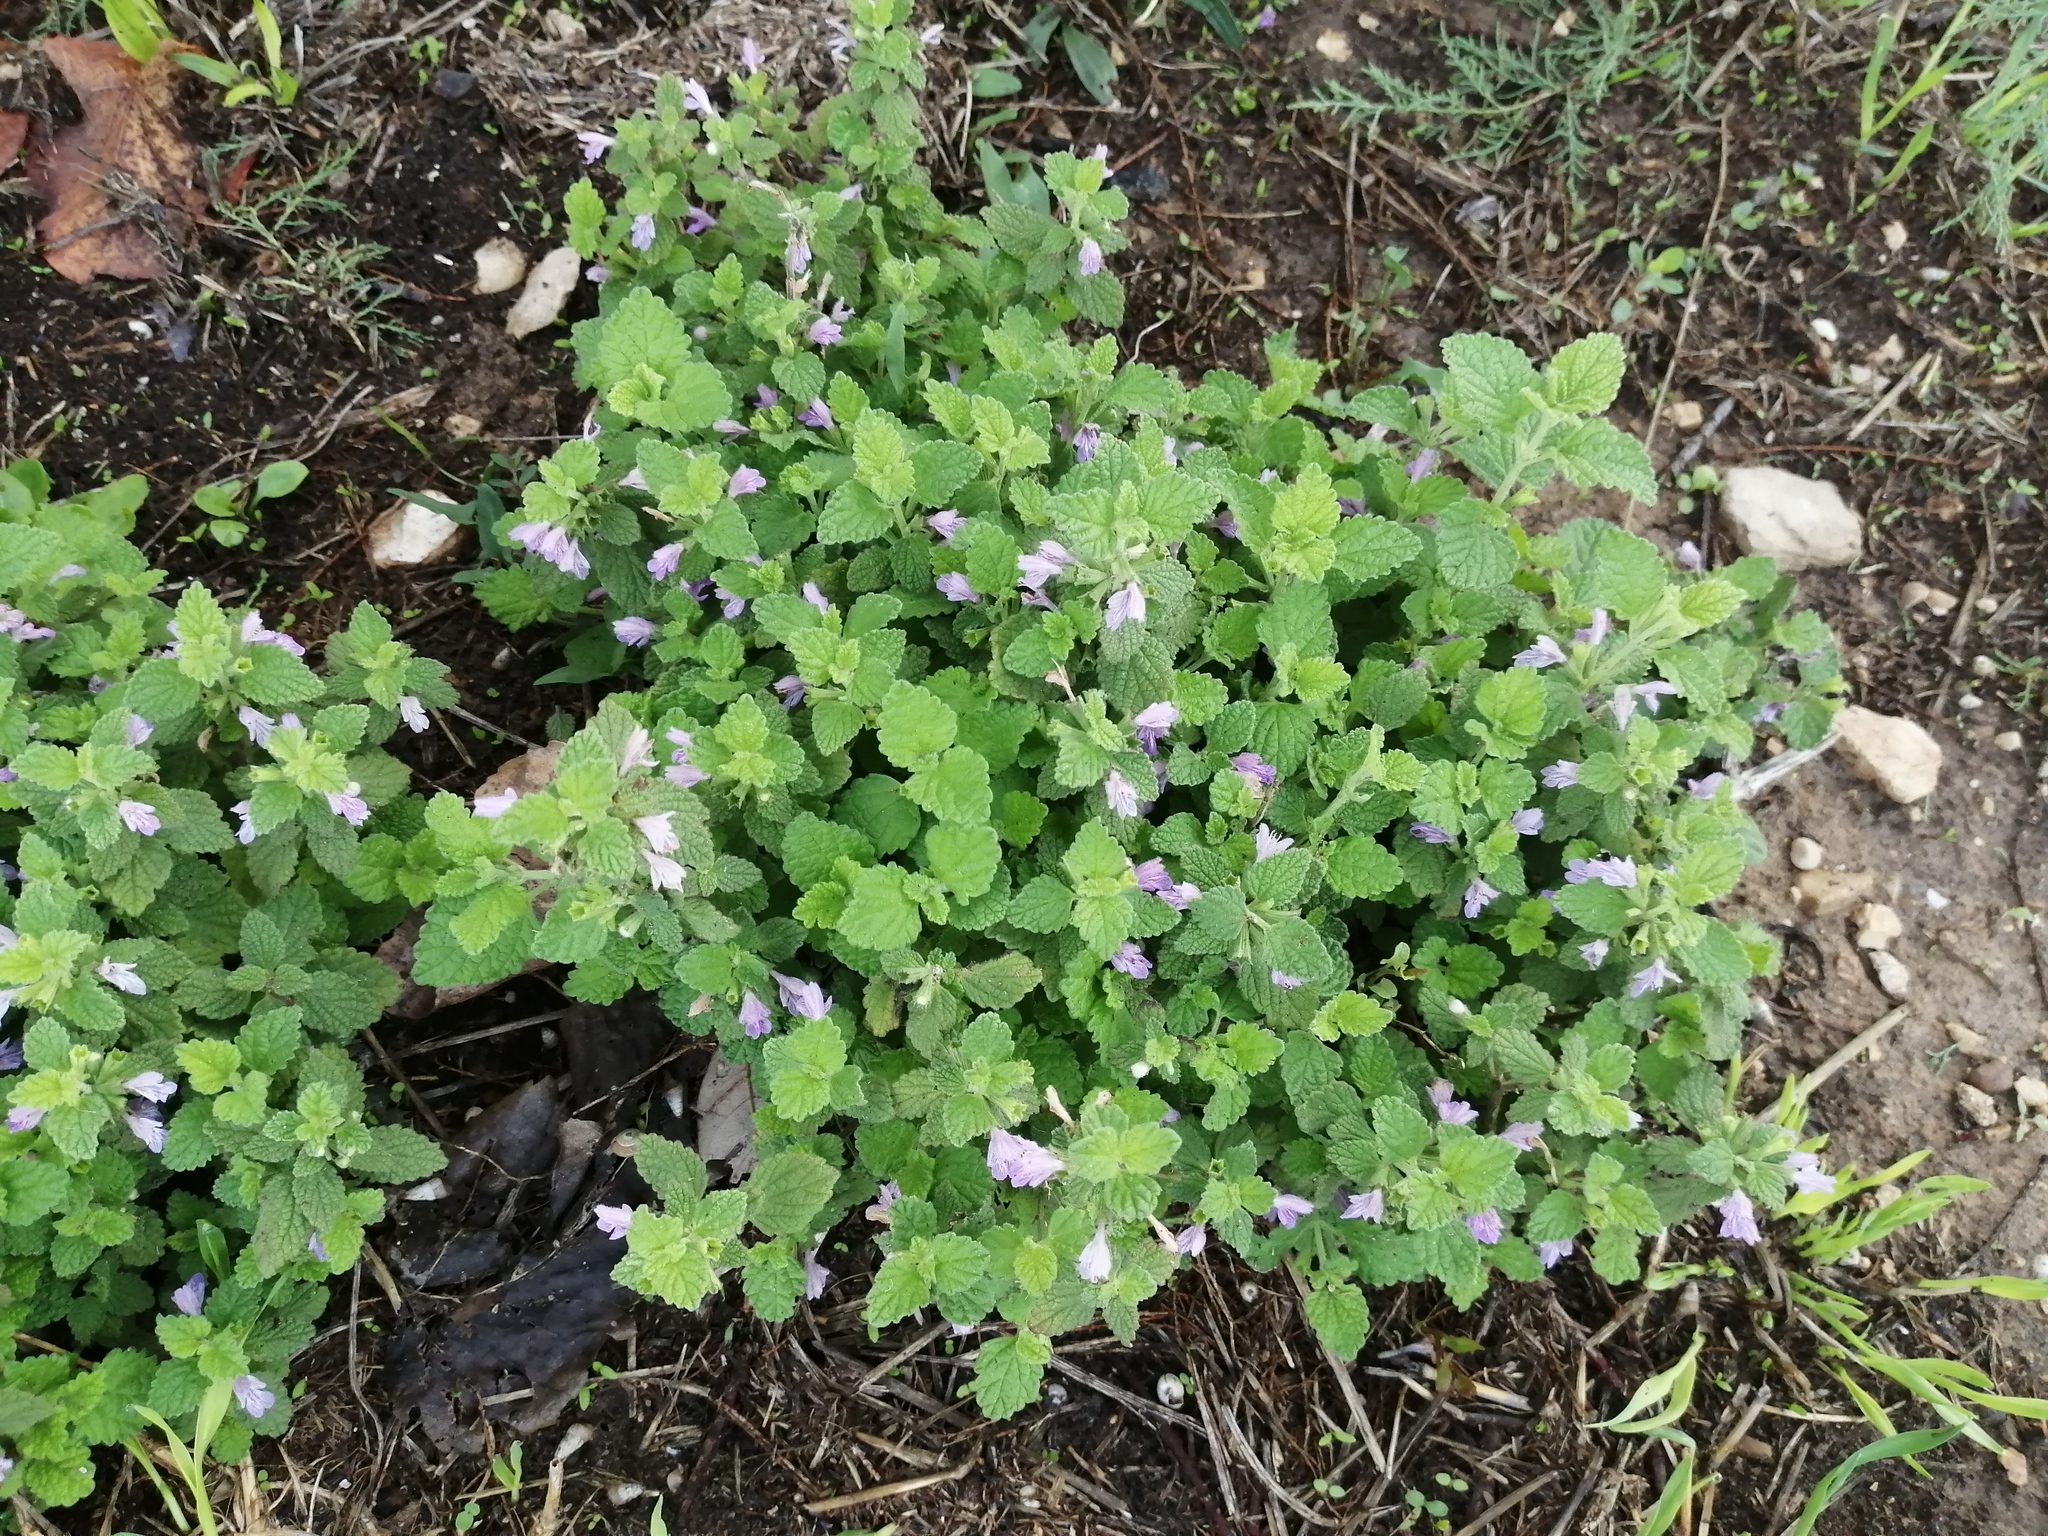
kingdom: Plantae
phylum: Tracheophyta
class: Magnoliopsida
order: Lamiales
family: Lamiaceae
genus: Ballota
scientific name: Ballota nigra
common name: Black horehound
